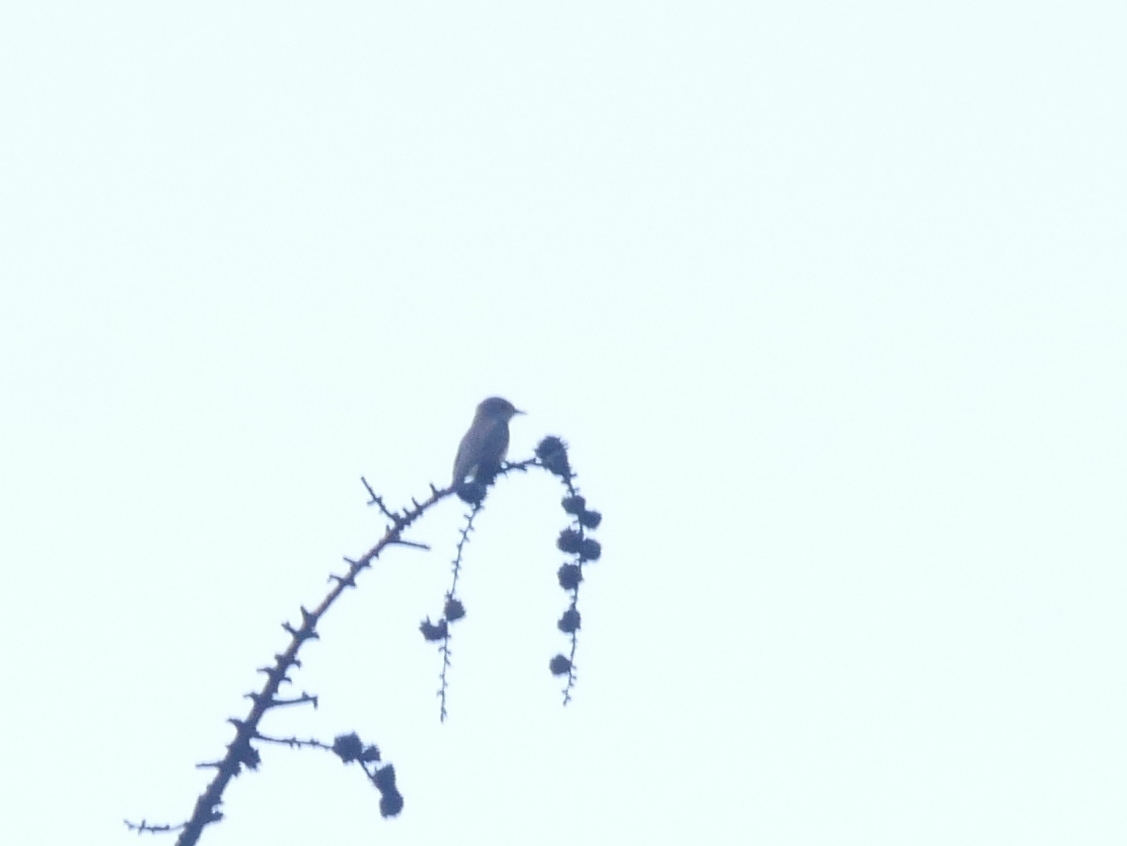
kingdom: Animalia
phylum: Chordata
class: Aves
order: Passeriformes
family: Muscicapidae
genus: Muscicapa
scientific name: Muscicapa striata
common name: Spotted flycatcher
